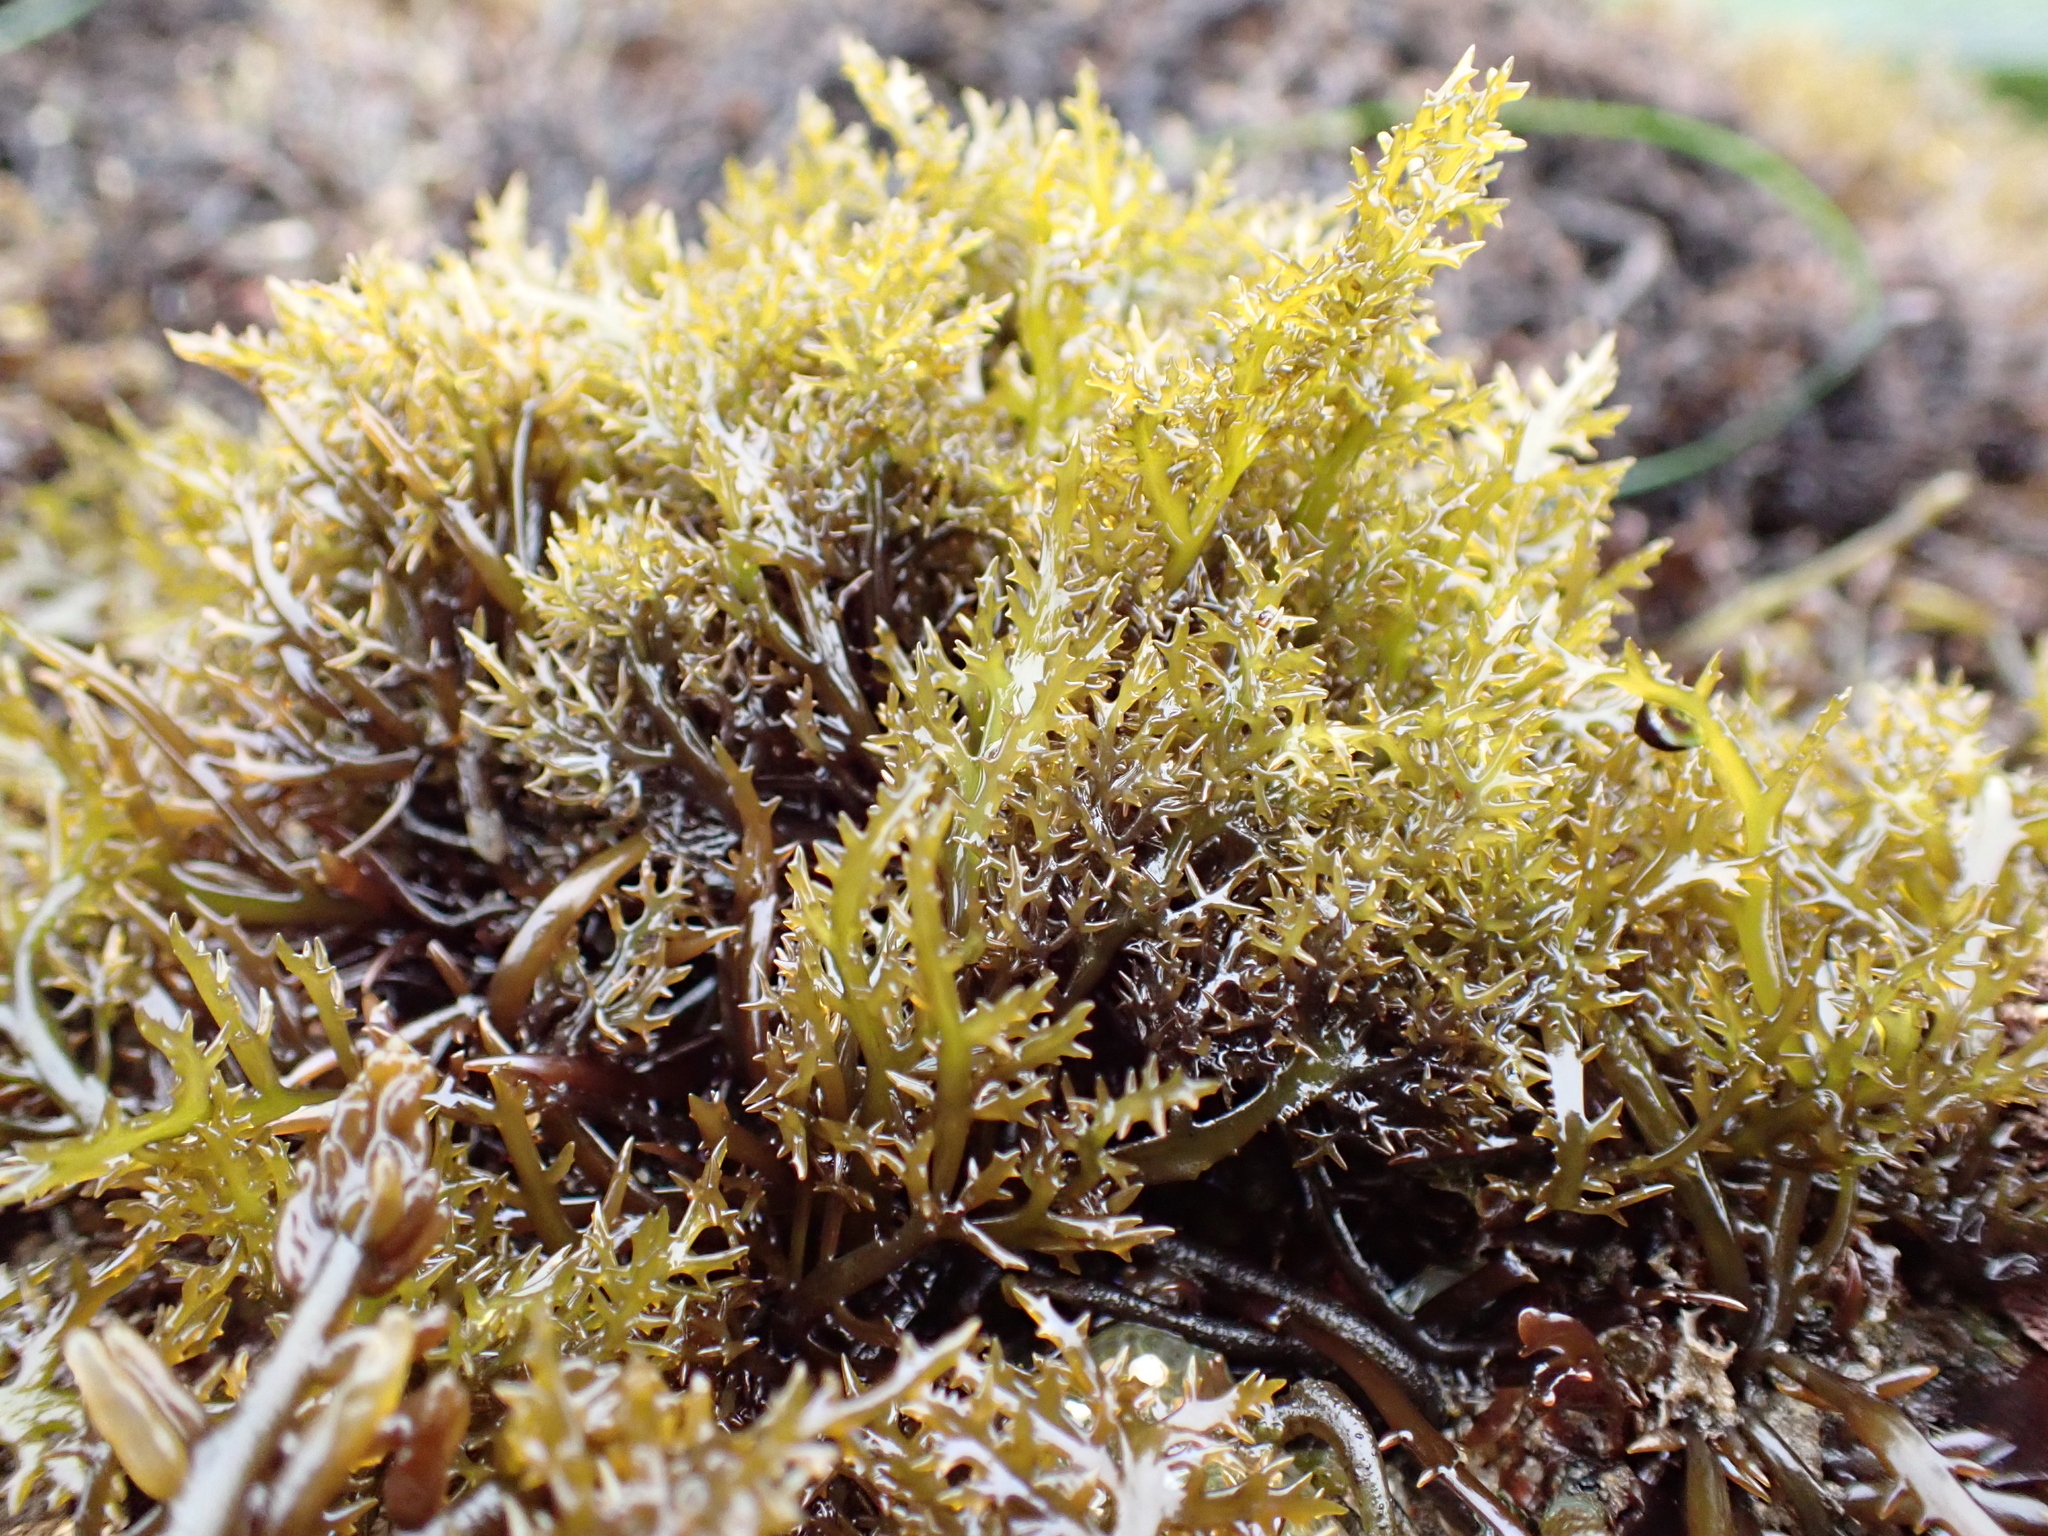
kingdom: Plantae
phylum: Rhodophyta
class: Florideophyceae
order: Gigartinales
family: Gigartinaceae
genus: Chondracanthus
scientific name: Chondracanthus canaliculatus
